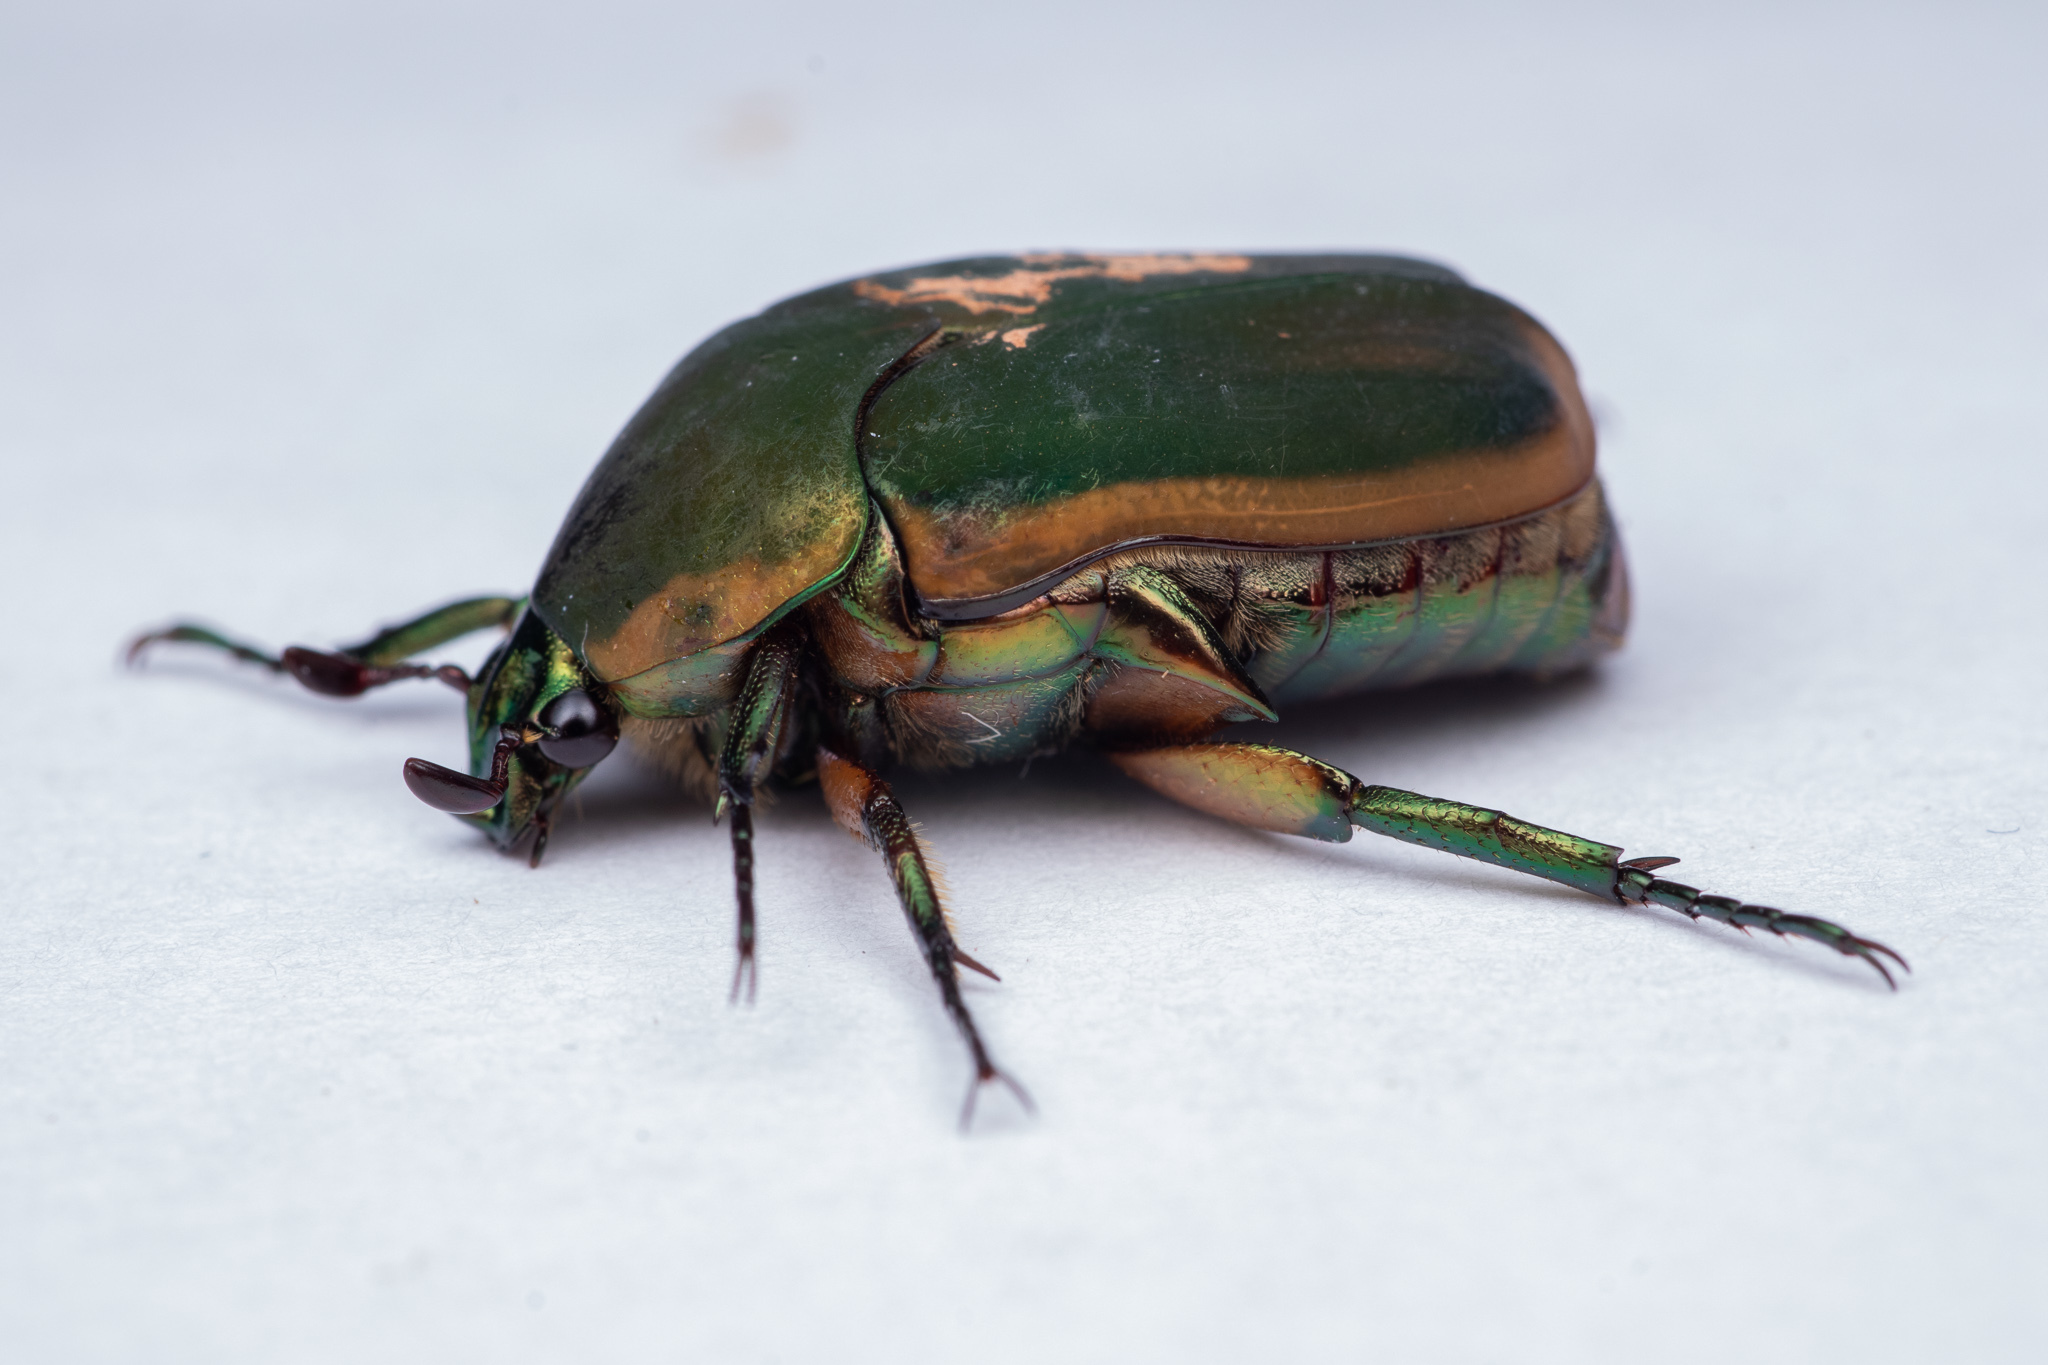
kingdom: Animalia
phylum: Arthropoda
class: Insecta
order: Coleoptera
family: Scarabaeidae
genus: Cotinis
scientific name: Cotinis nitida
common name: Common green june beetle
